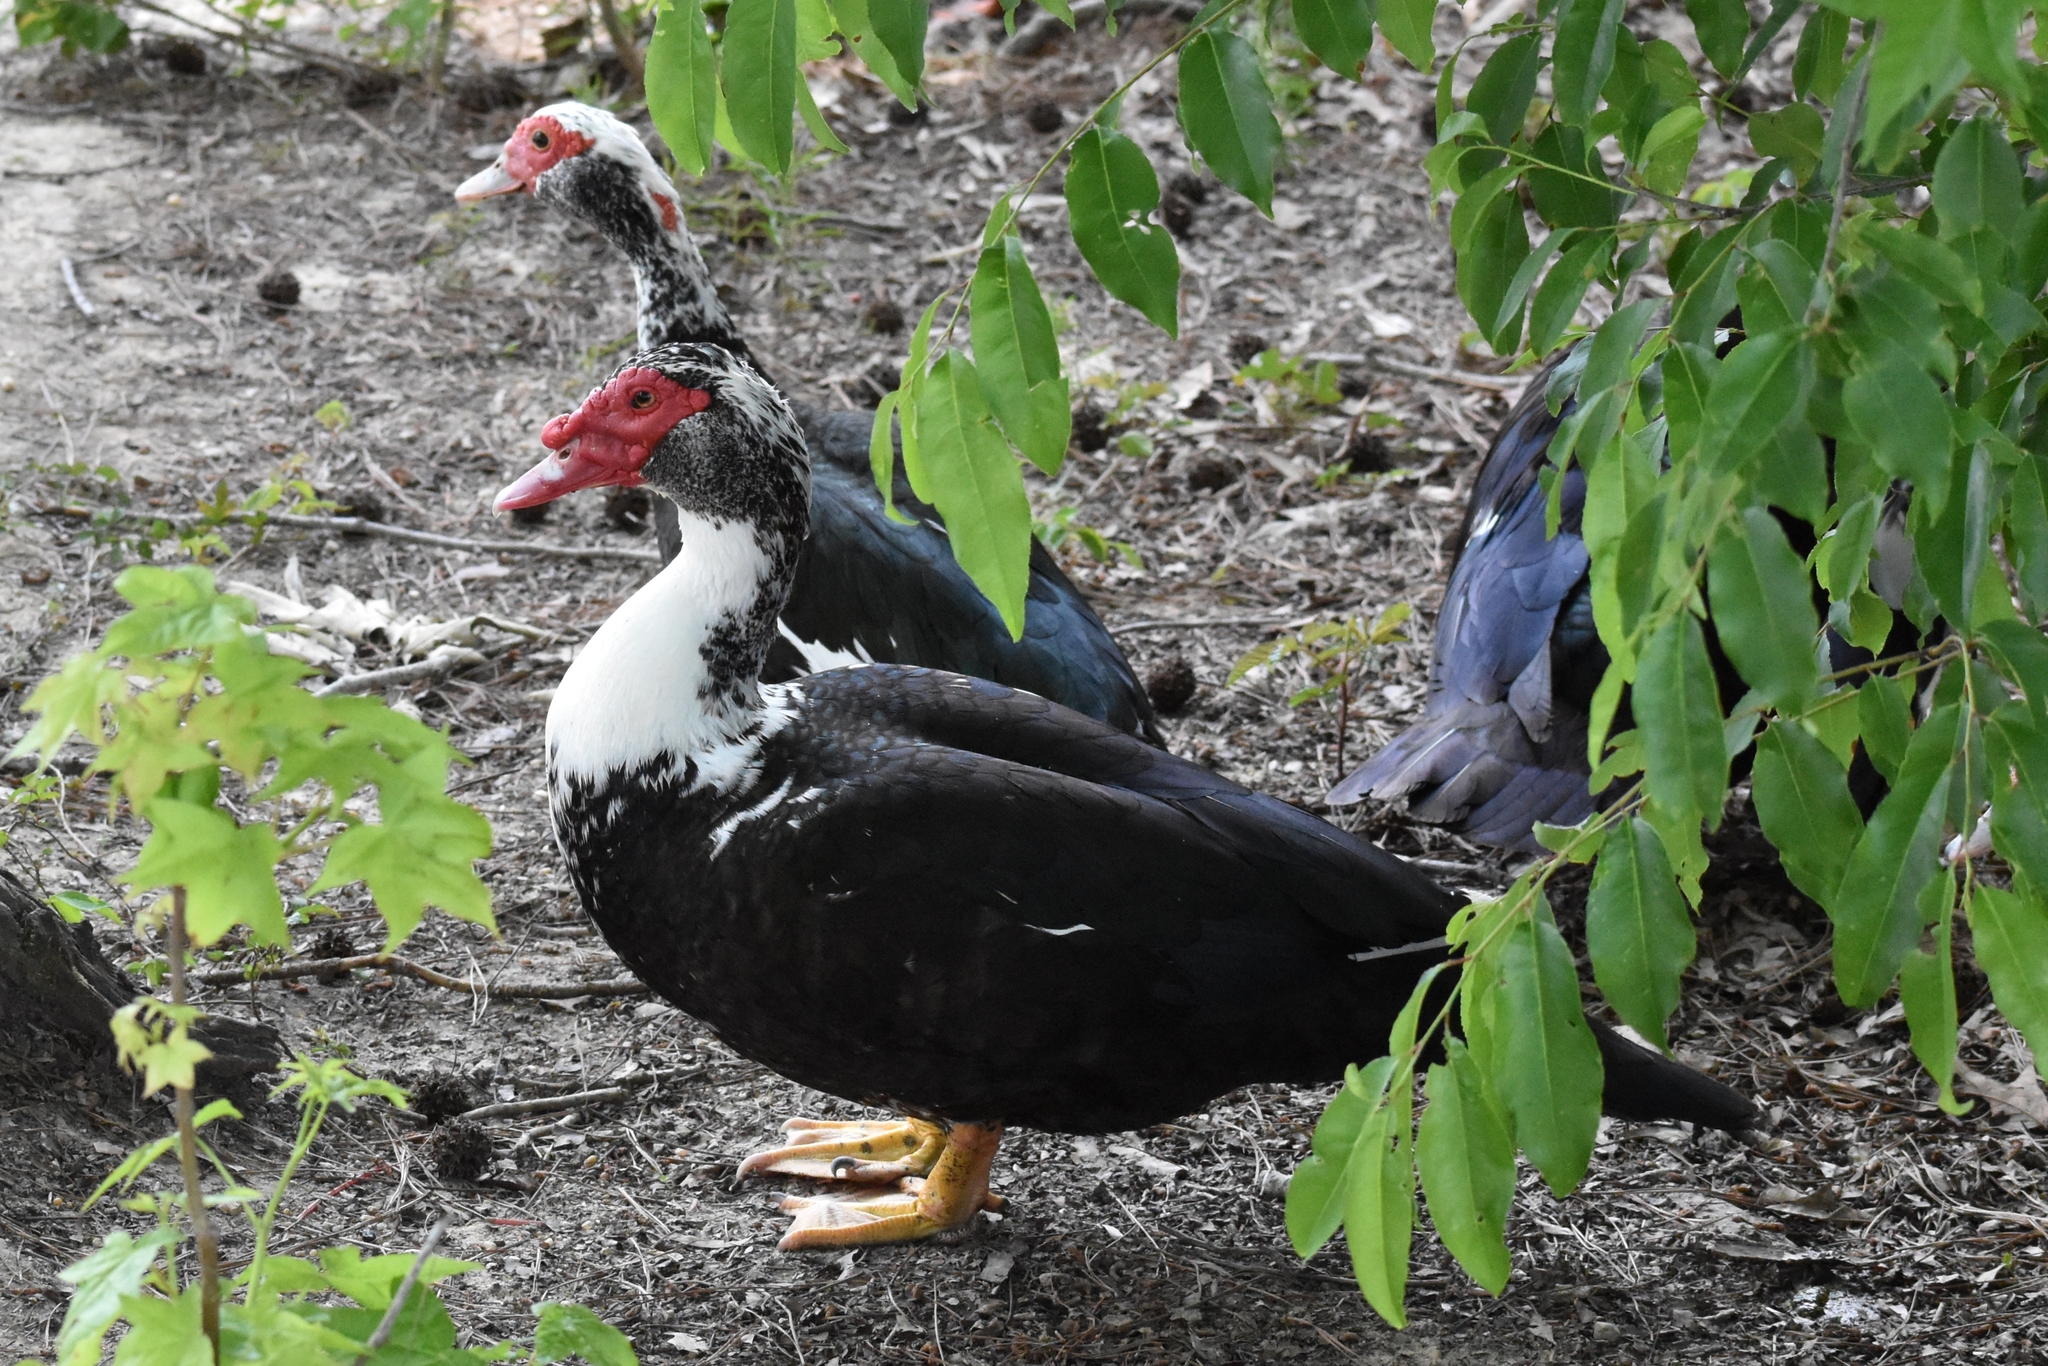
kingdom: Animalia
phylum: Chordata
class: Aves
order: Anseriformes
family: Anatidae
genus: Cairina
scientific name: Cairina moschata
